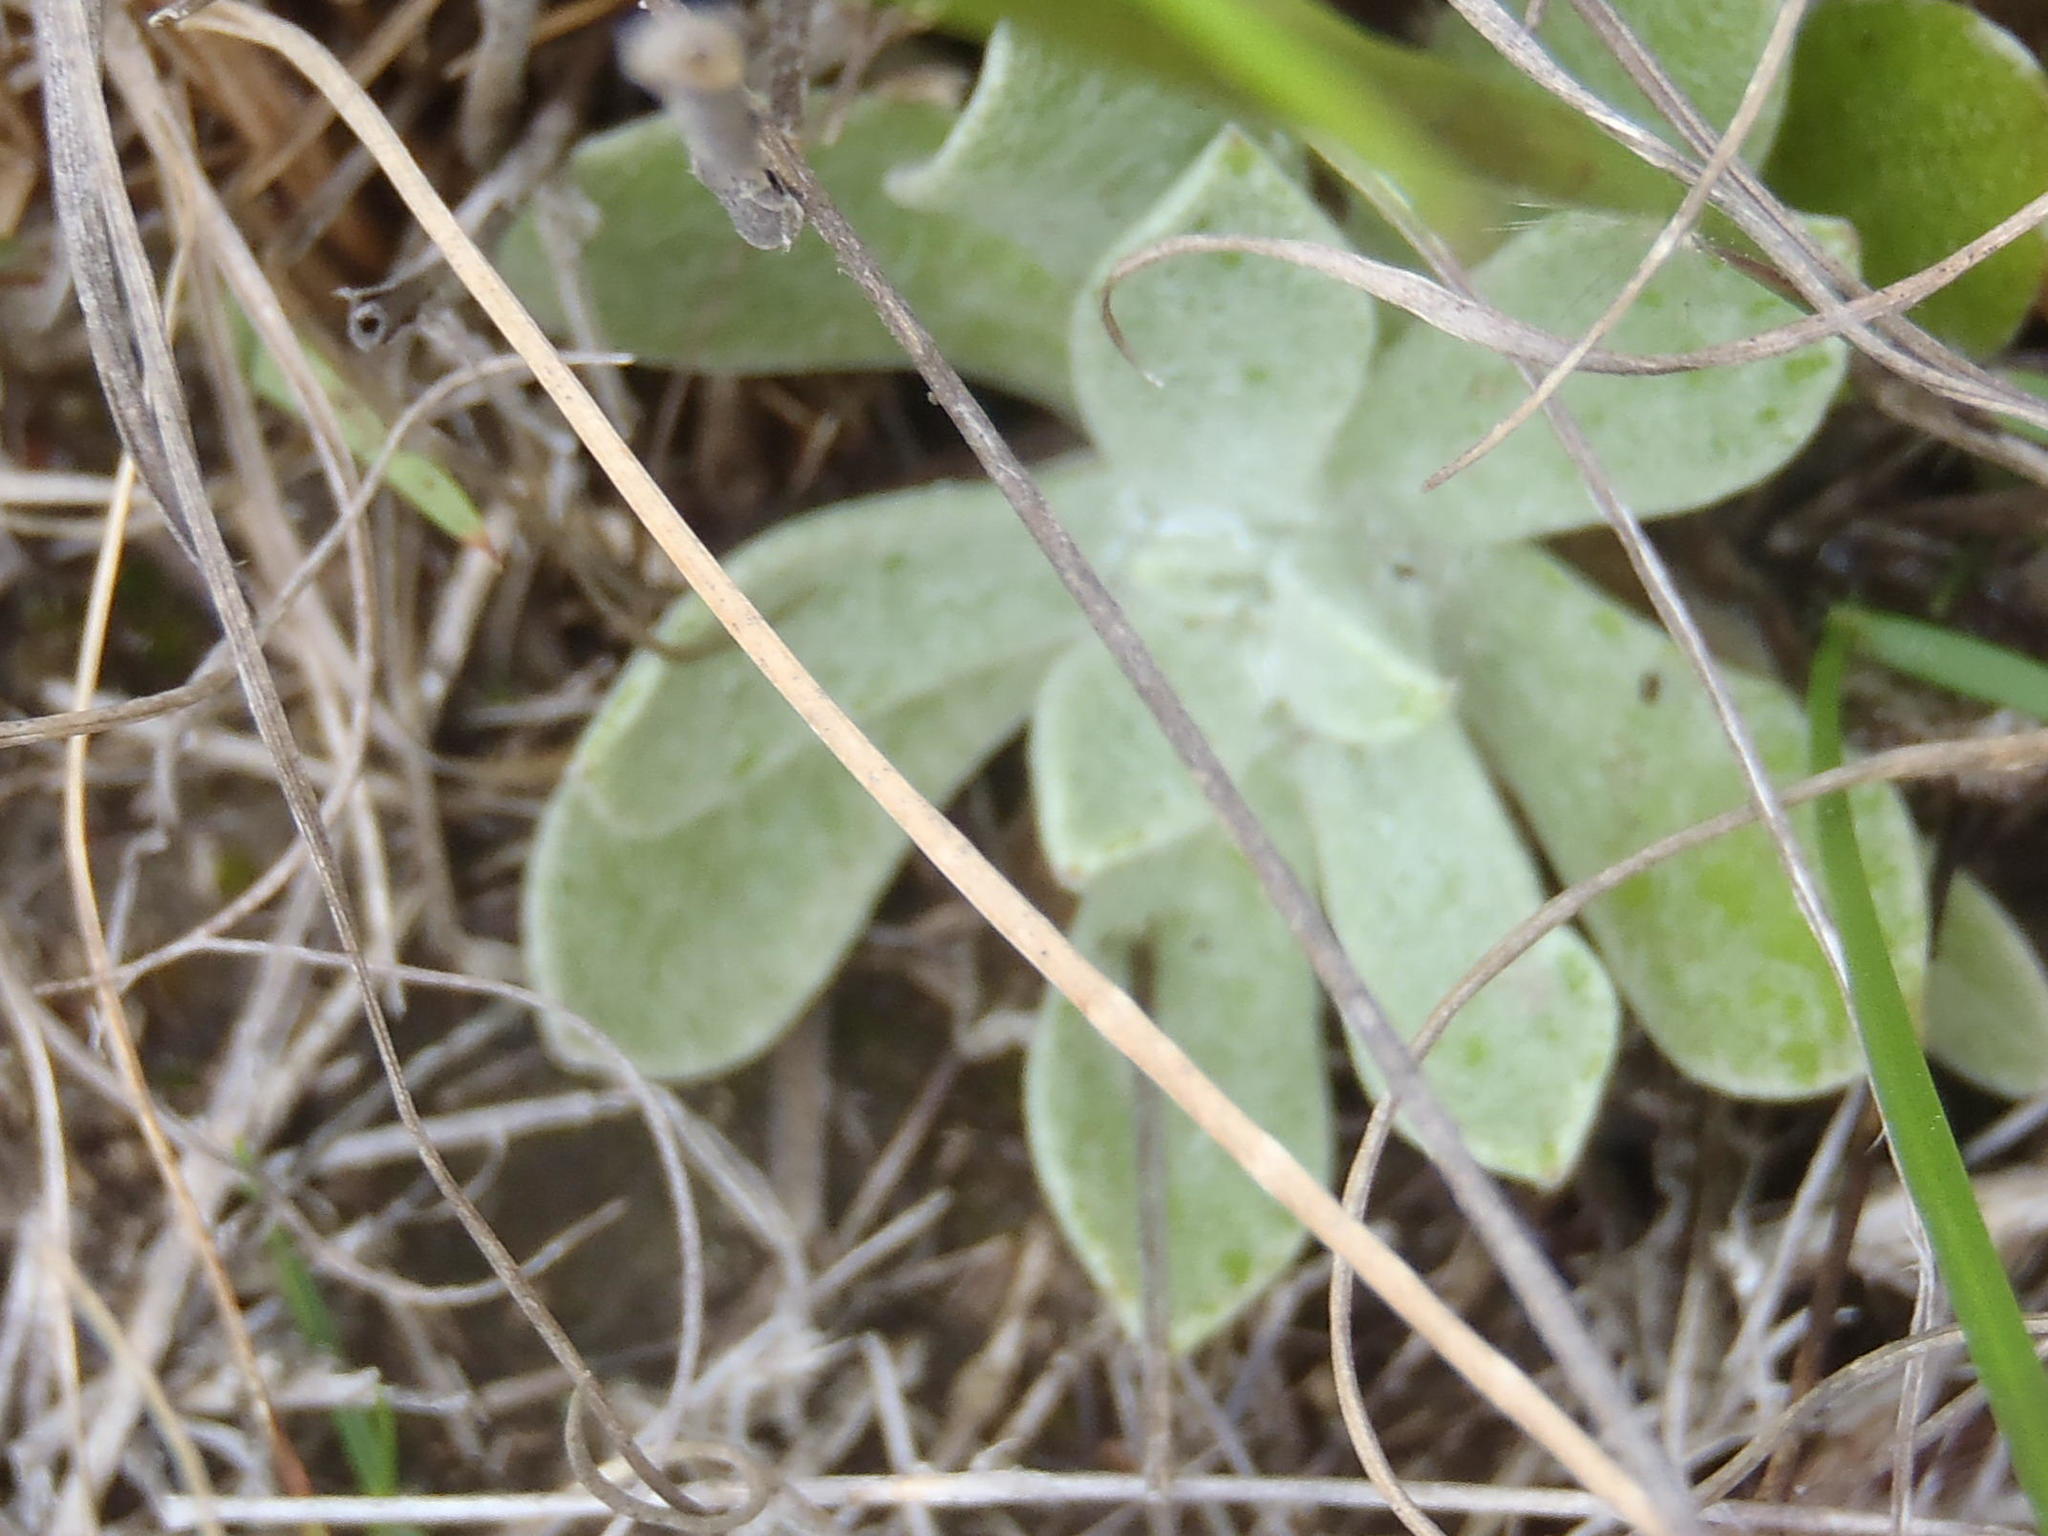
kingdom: Plantae
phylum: Tracheophyta
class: Magnoliopsida
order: Asterales
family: Asteraceae
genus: Helichrysum
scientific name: Helichrysum spiralepis
